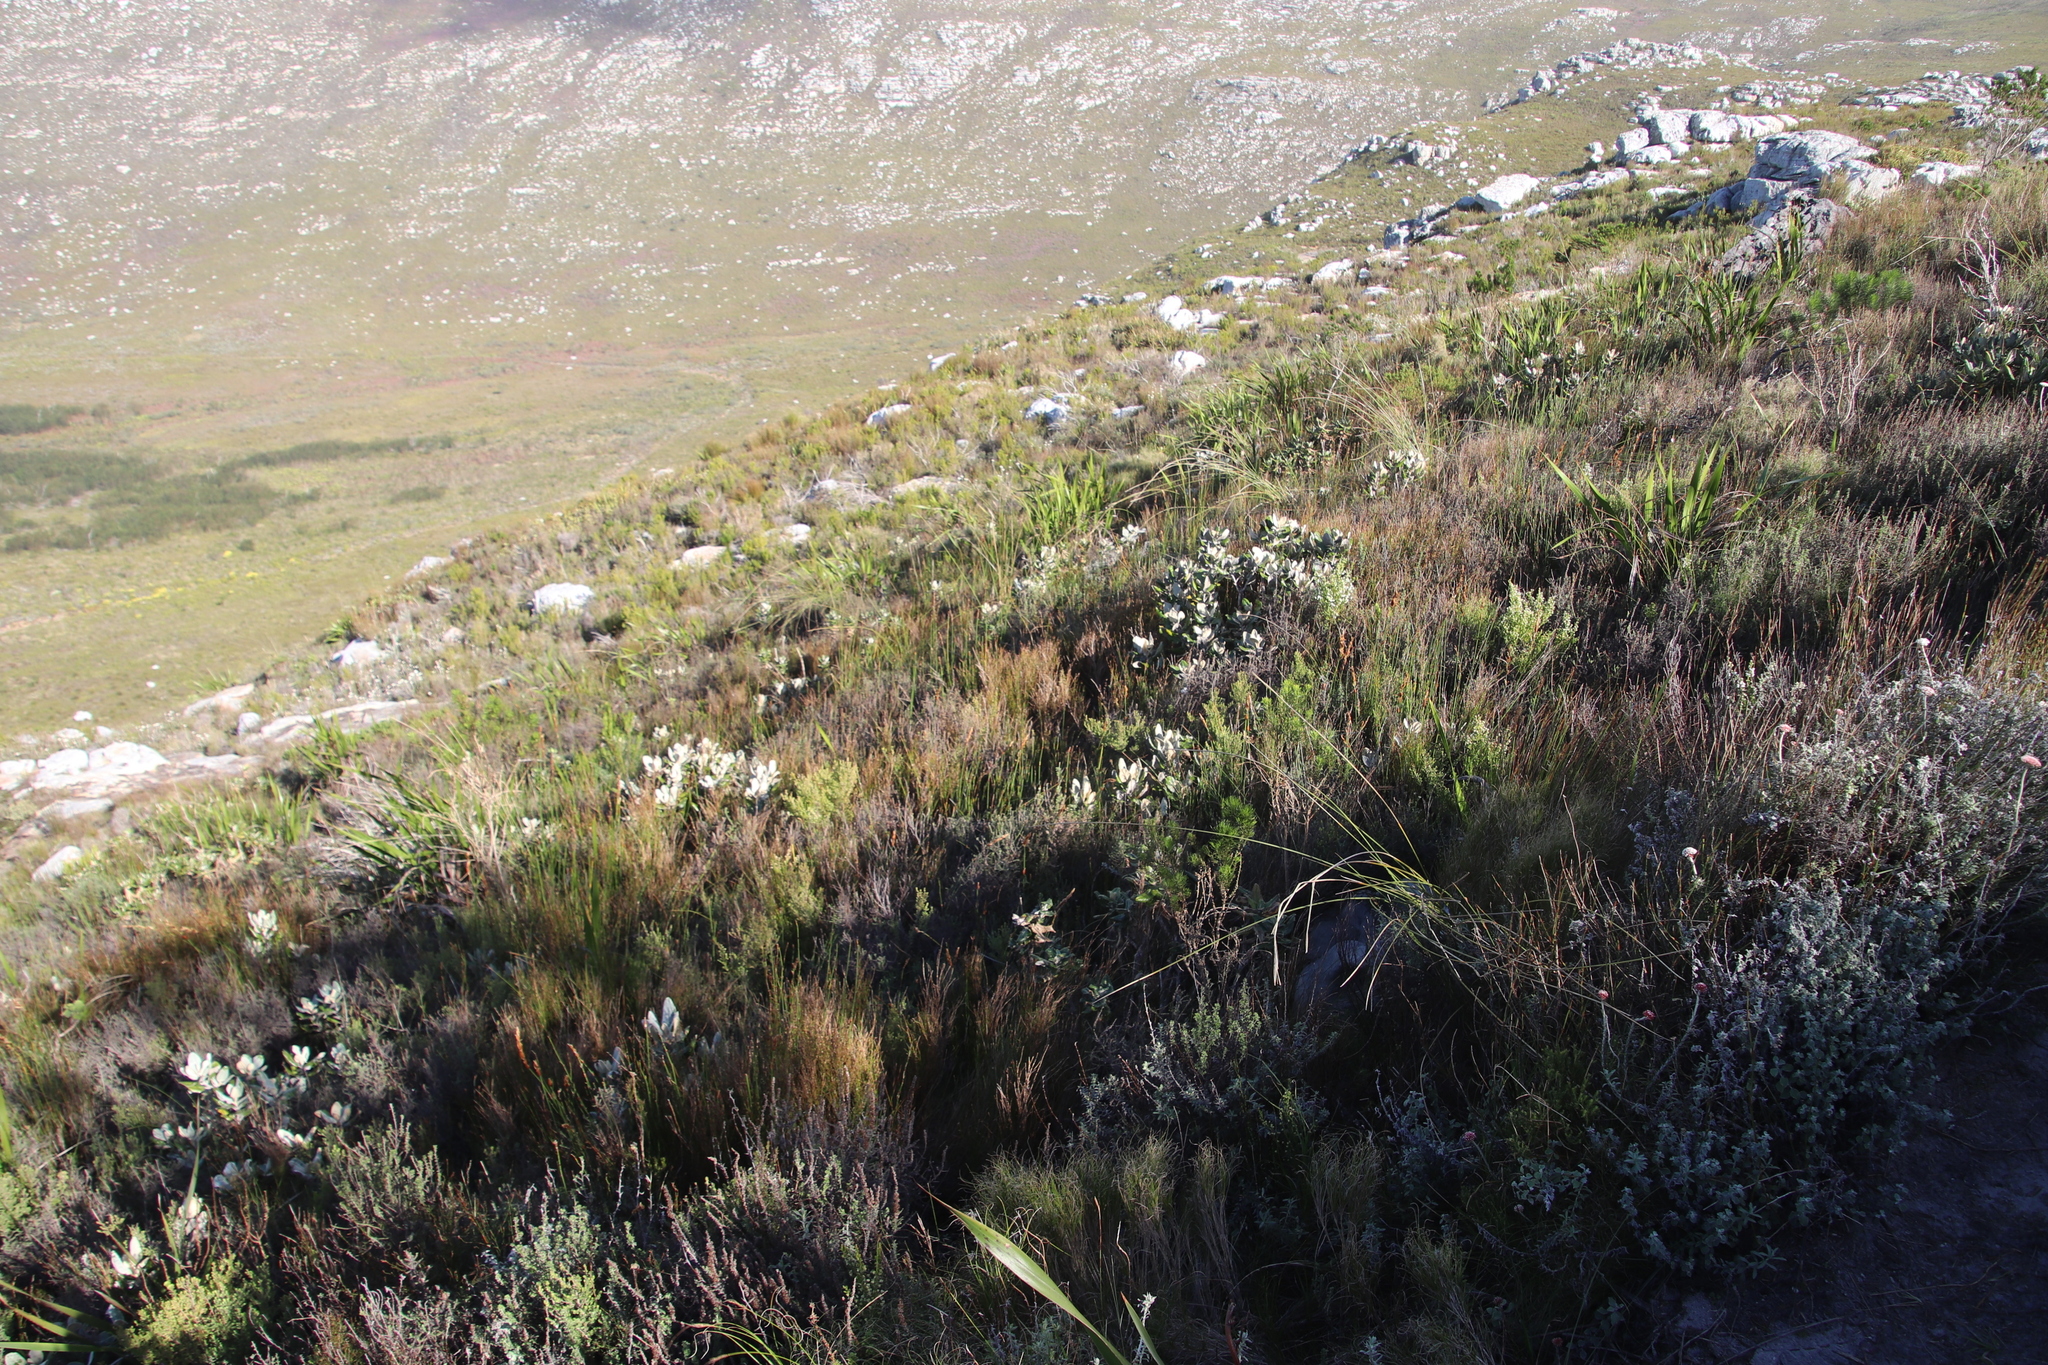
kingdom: Plantae
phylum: Tracheophyta
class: Magnoliopsida
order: Asterales
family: Asteraceae
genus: Capelio
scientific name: Capelio tabularis
